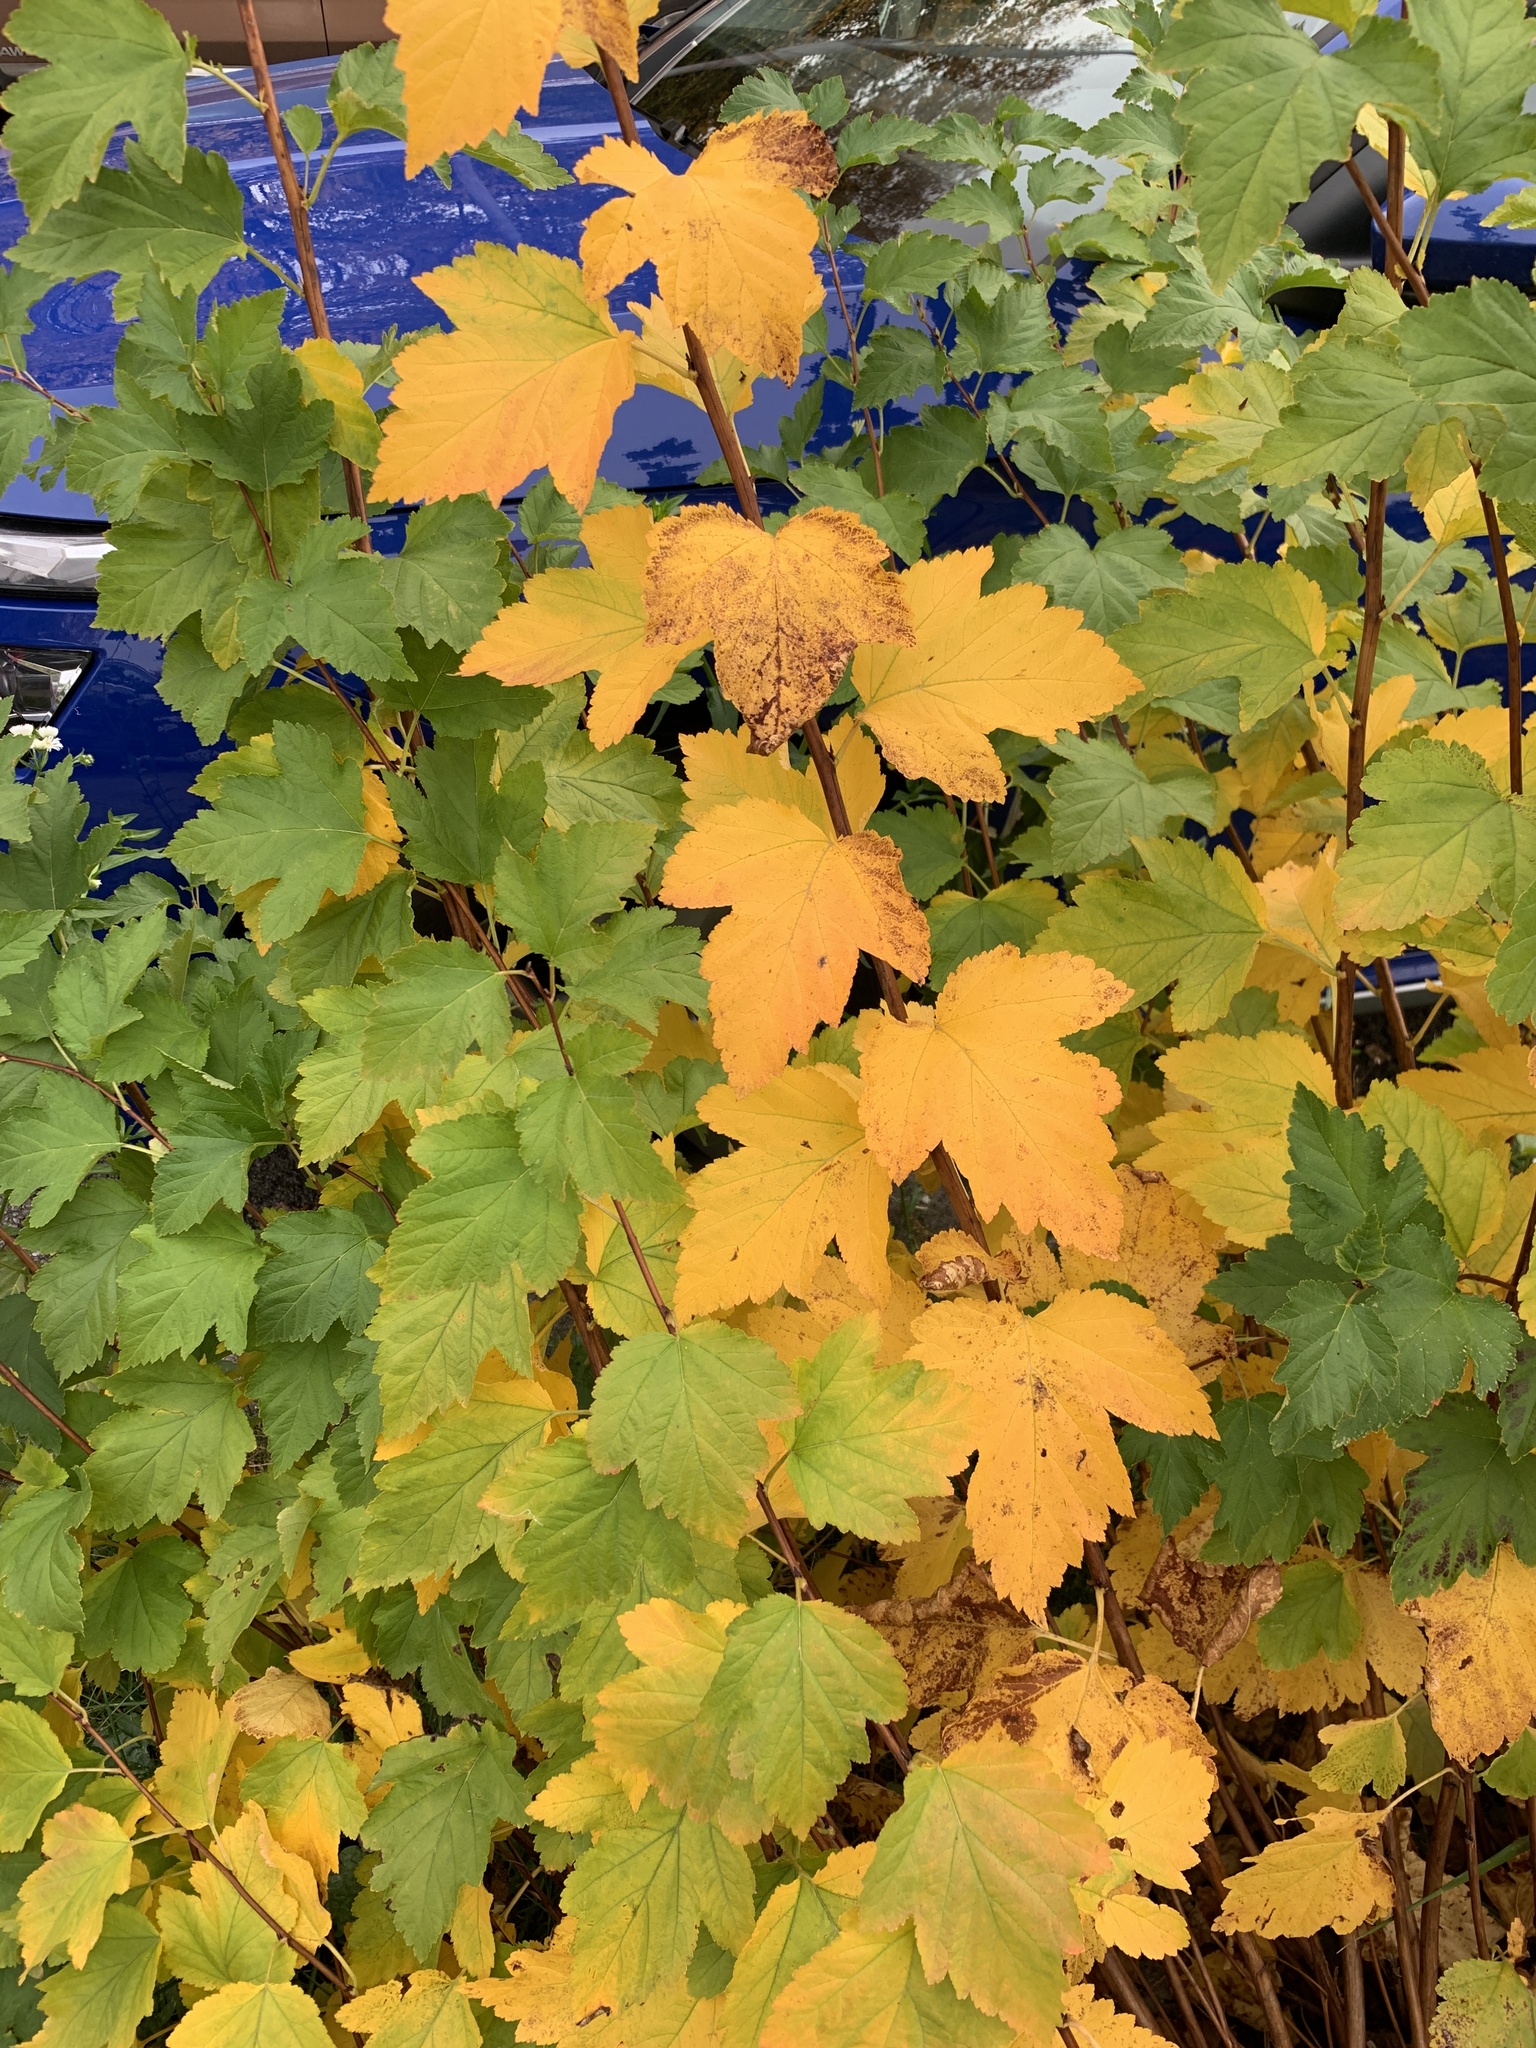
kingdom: Plantae
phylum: Tracheophyta
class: Magnoliopsida
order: Sapindales
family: Sapindaceae
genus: Acer
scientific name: Acer pseudoplatanus
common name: Sycamore
